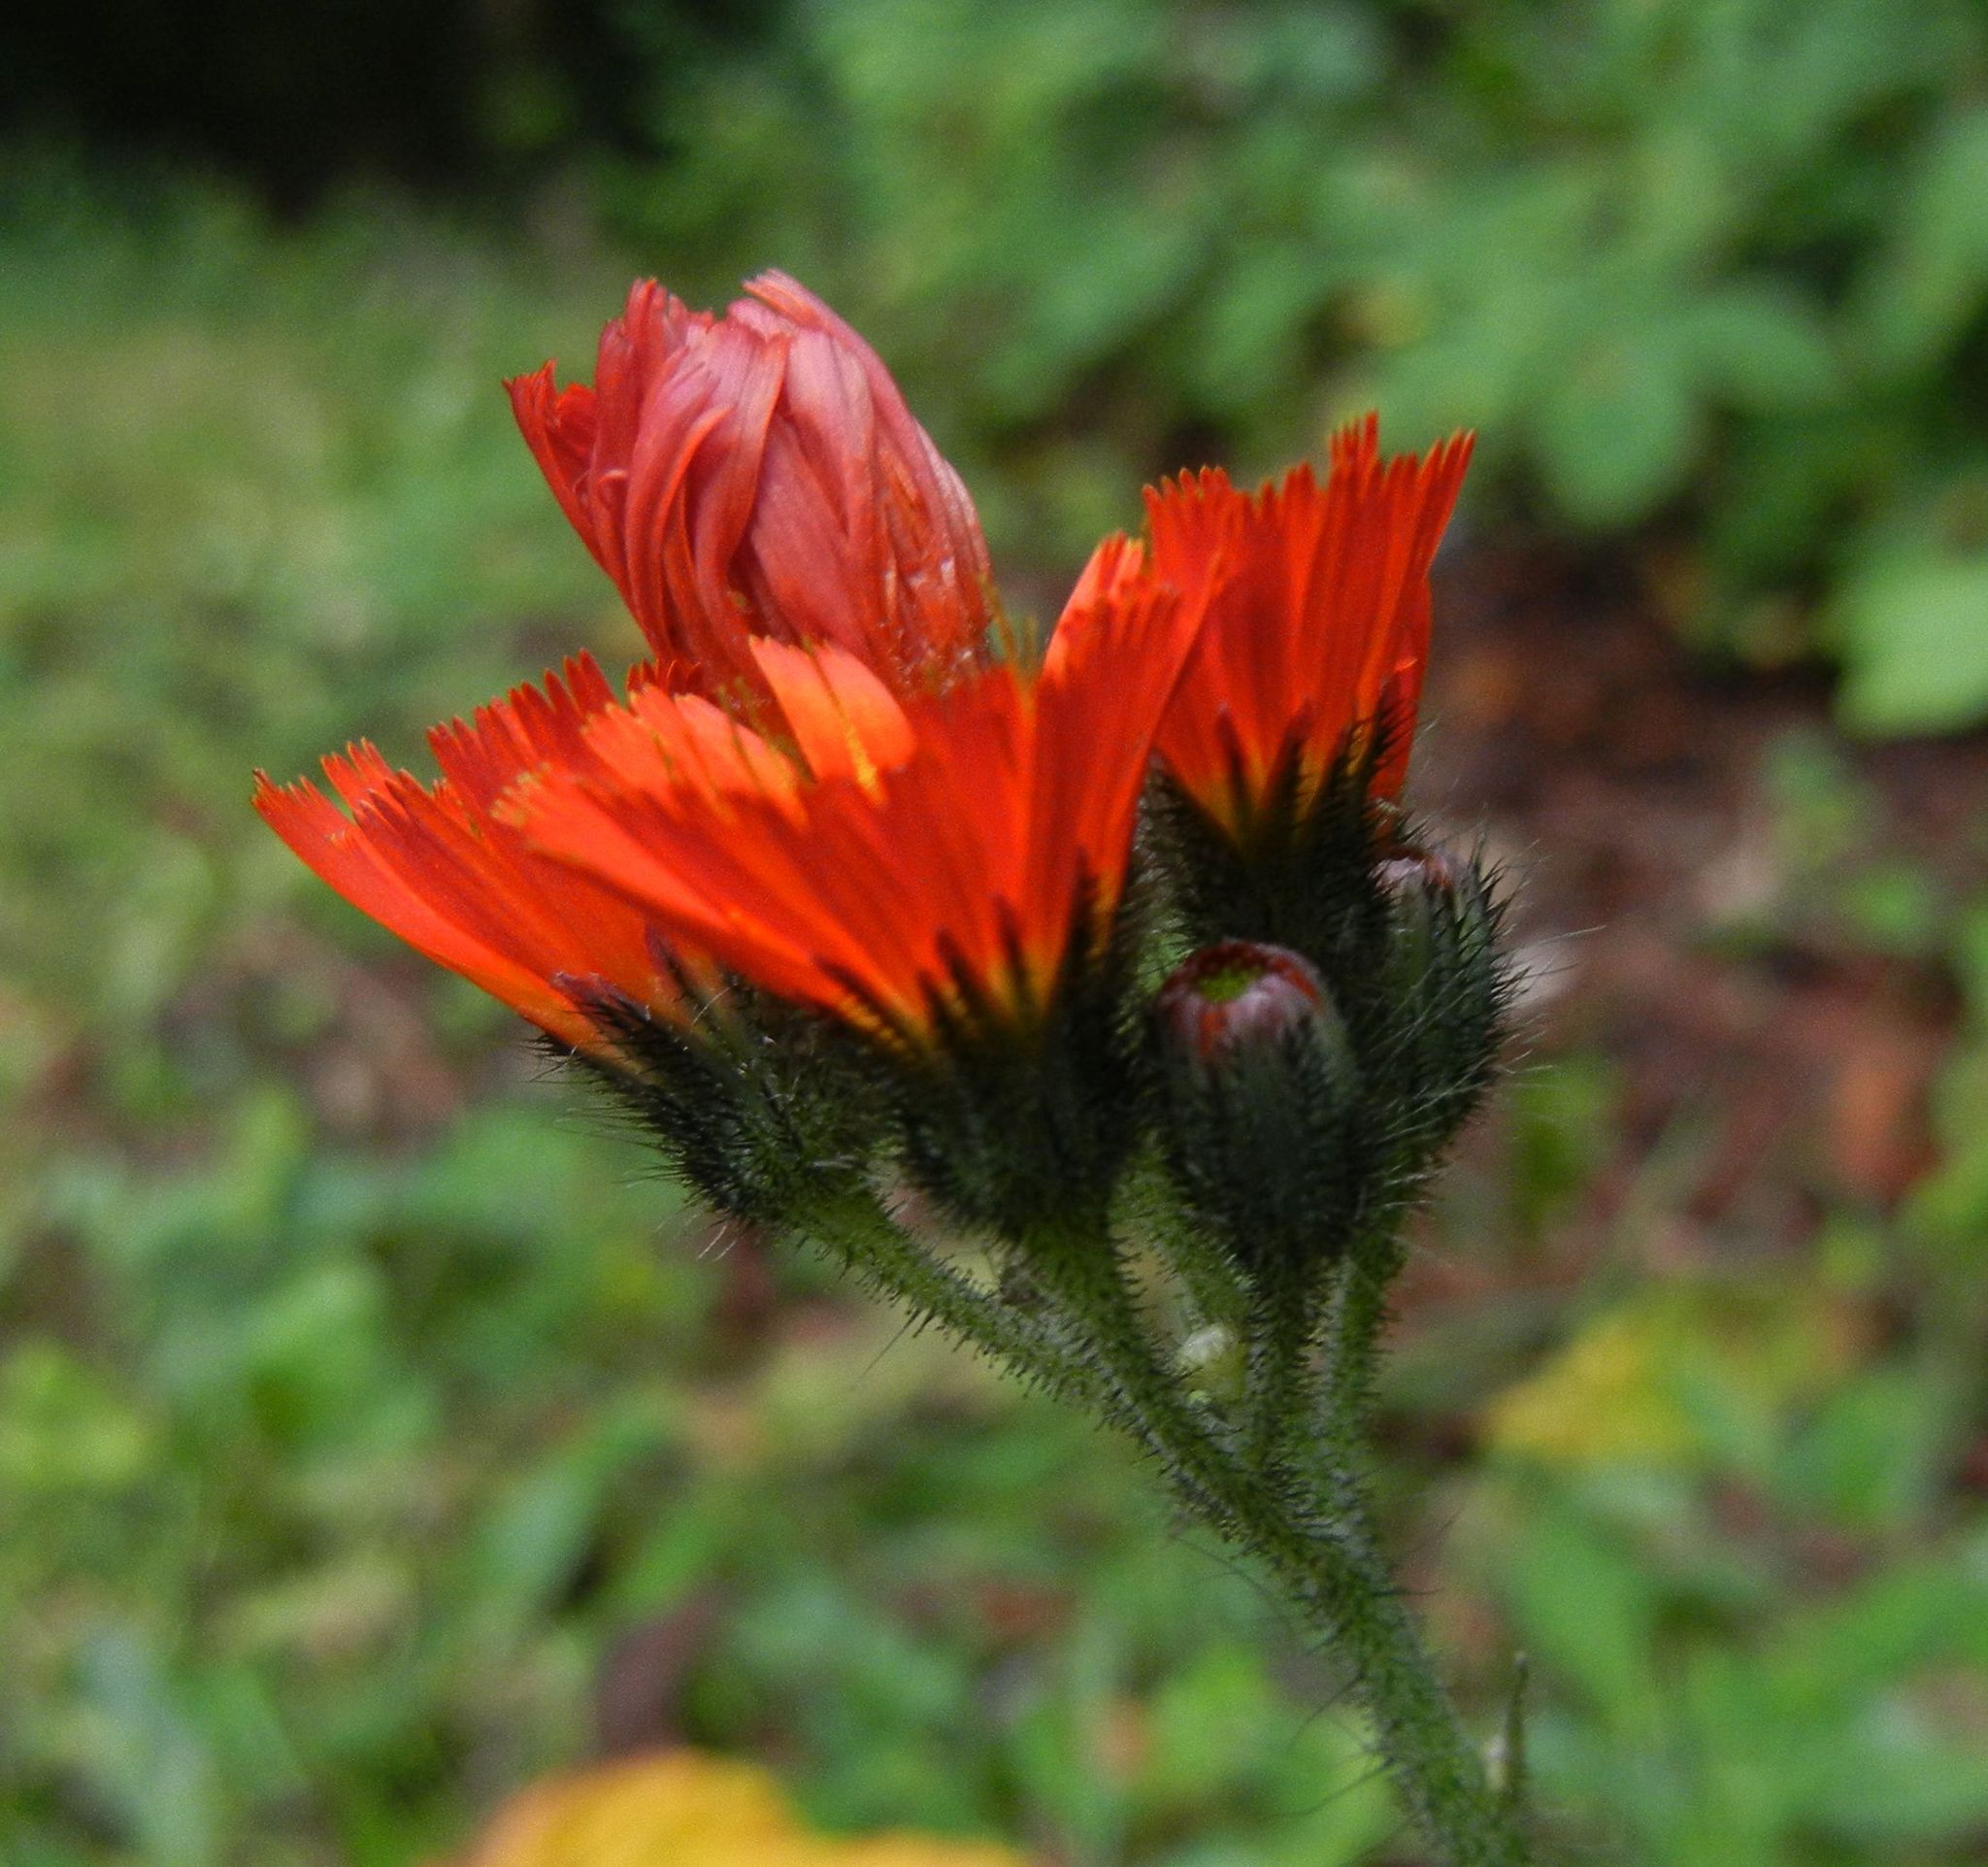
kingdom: Plantae
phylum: Tracheophyta
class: Magnoliopsida
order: Asterales
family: Asteraceae
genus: Pilosella
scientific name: Pilosella aurantiaca
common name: Fox-and-cubs
